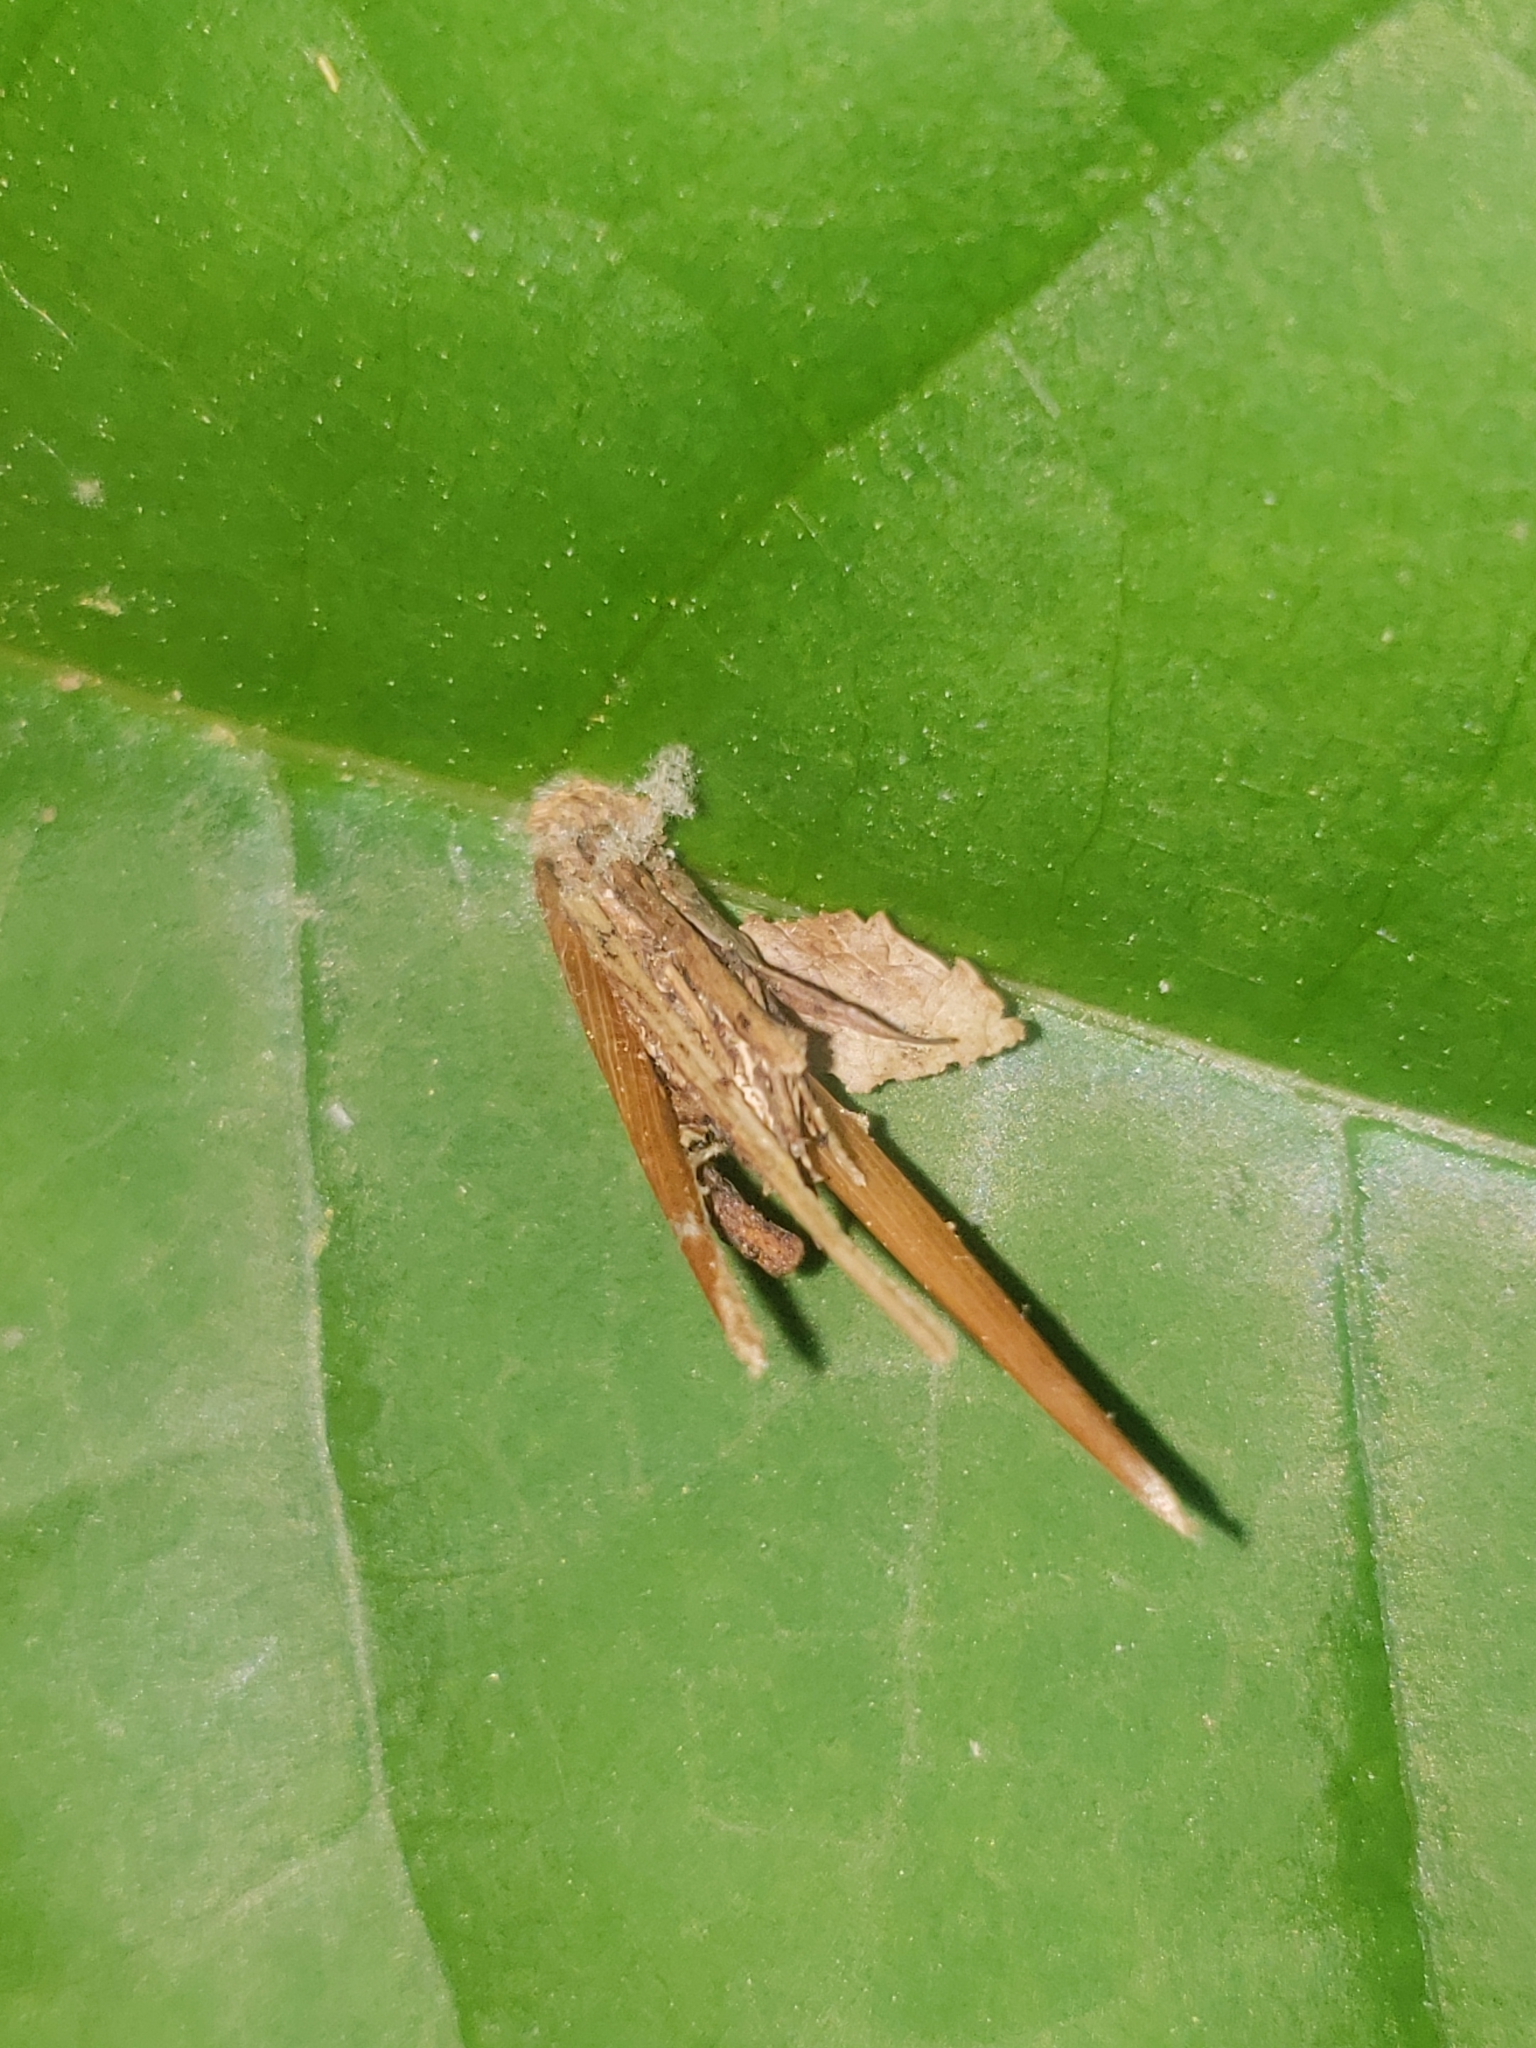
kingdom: Animalia
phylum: Arthropoda
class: Insecta
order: Lepidoptera
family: Psychidae
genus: Psyche
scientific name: Psyche casta
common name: Common sweep
